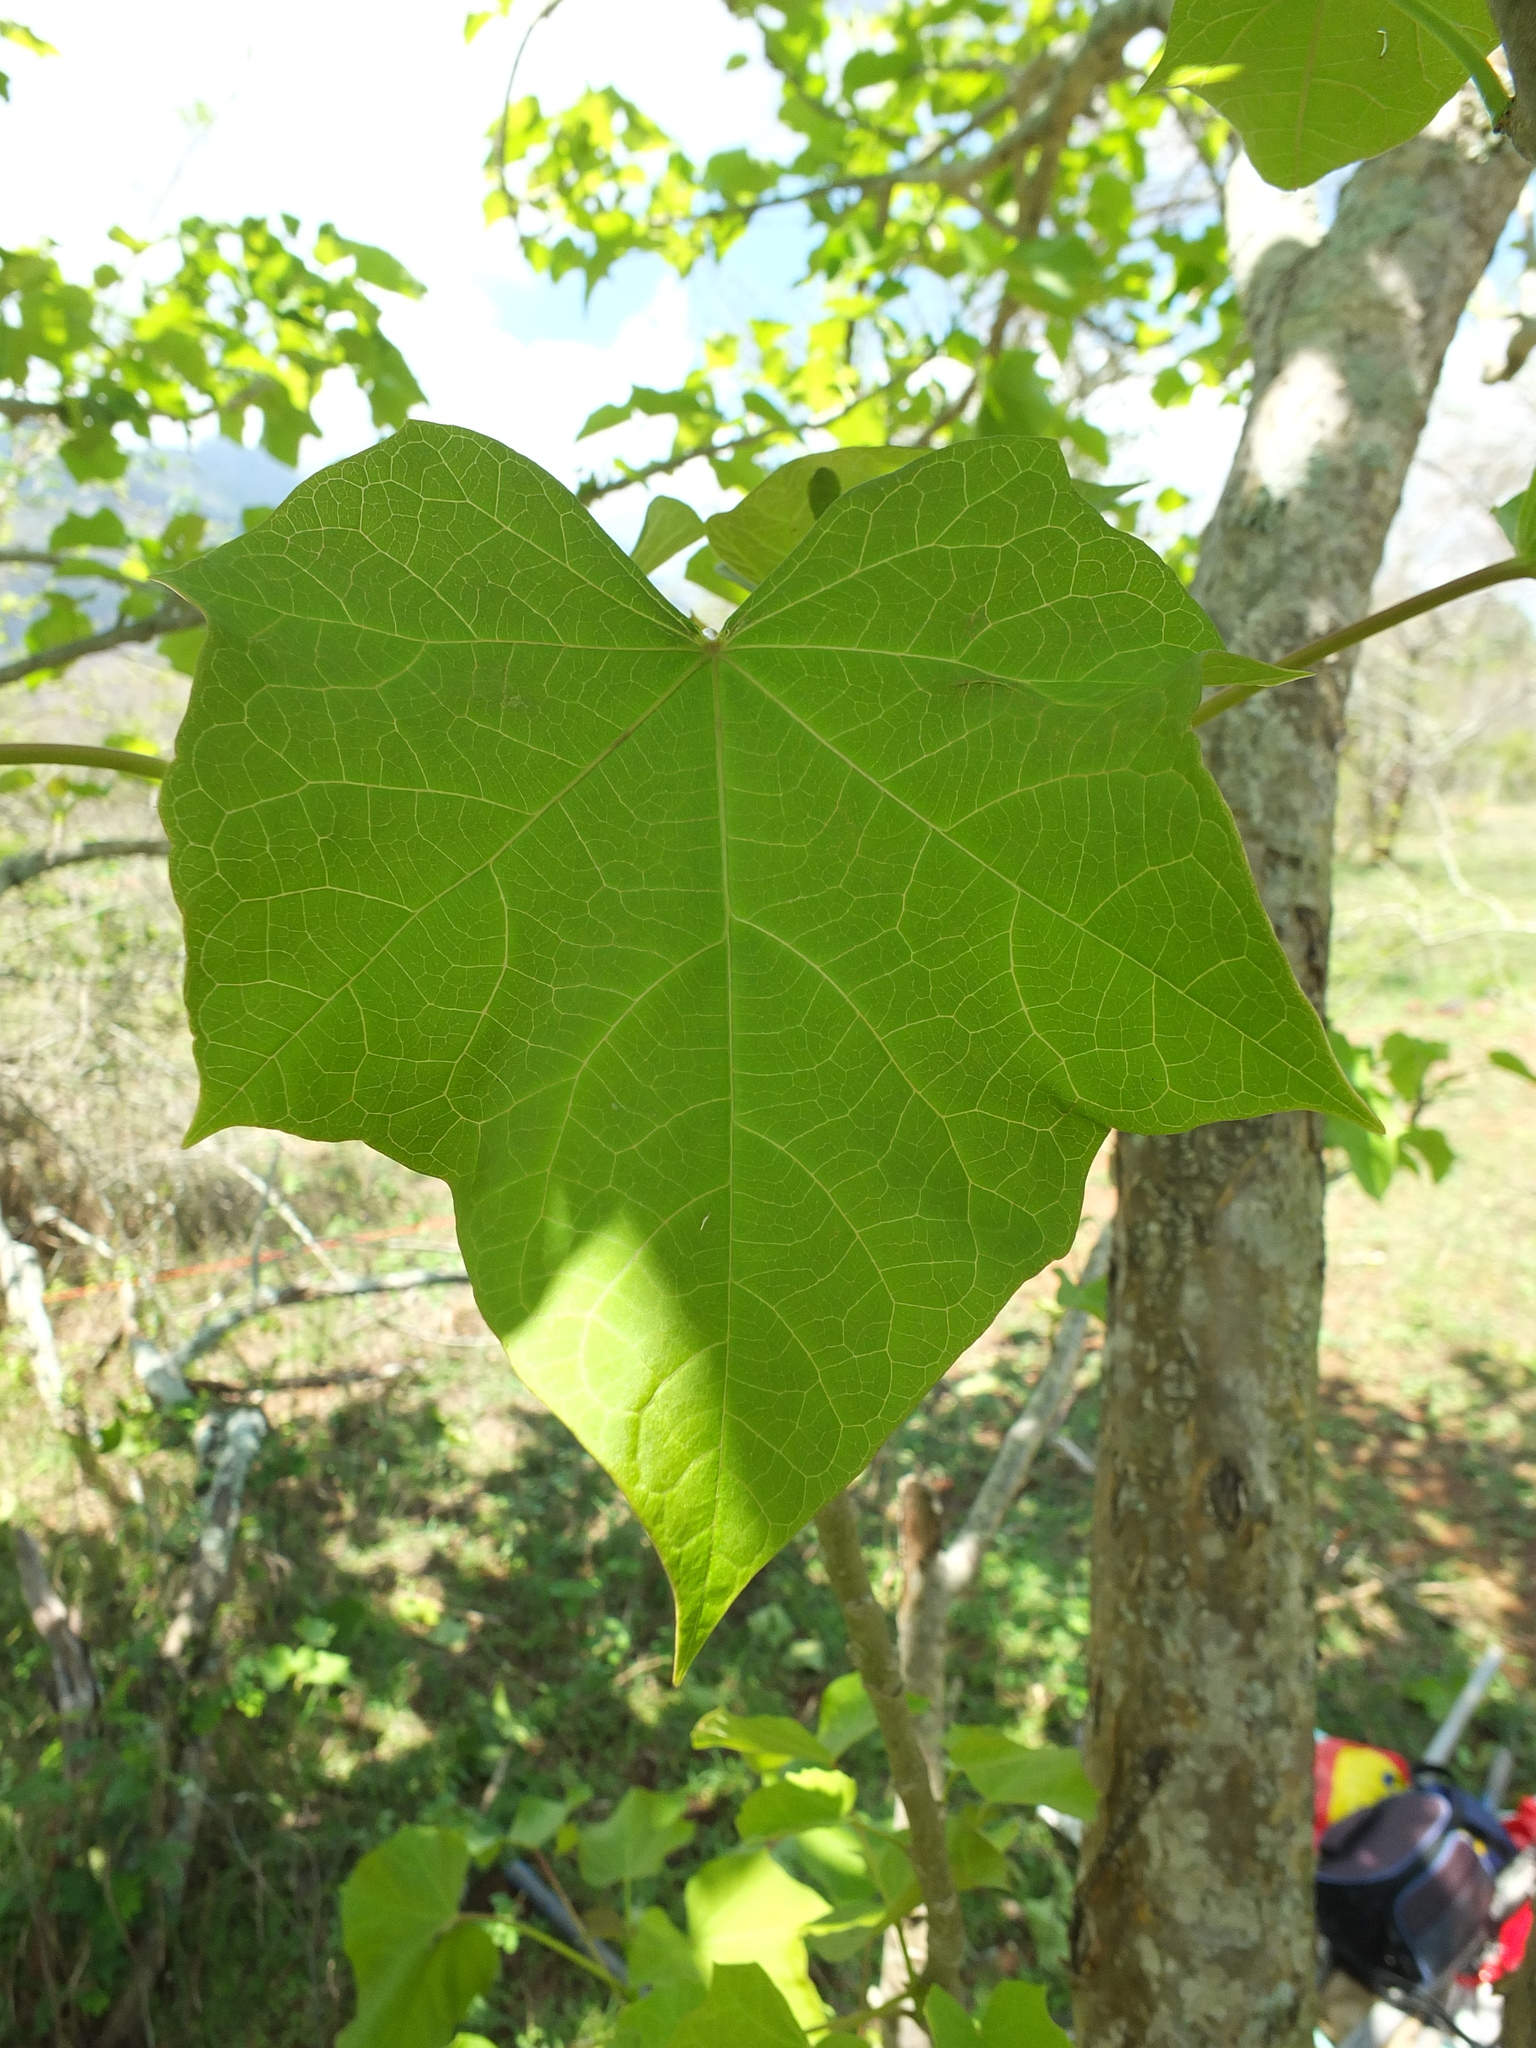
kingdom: Plantae
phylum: Tracheophyta
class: Magnoliopsida
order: Malpighiales
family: Euphorbiaceae
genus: Jatropha
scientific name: Jatropha curcas
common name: Barbados nut
